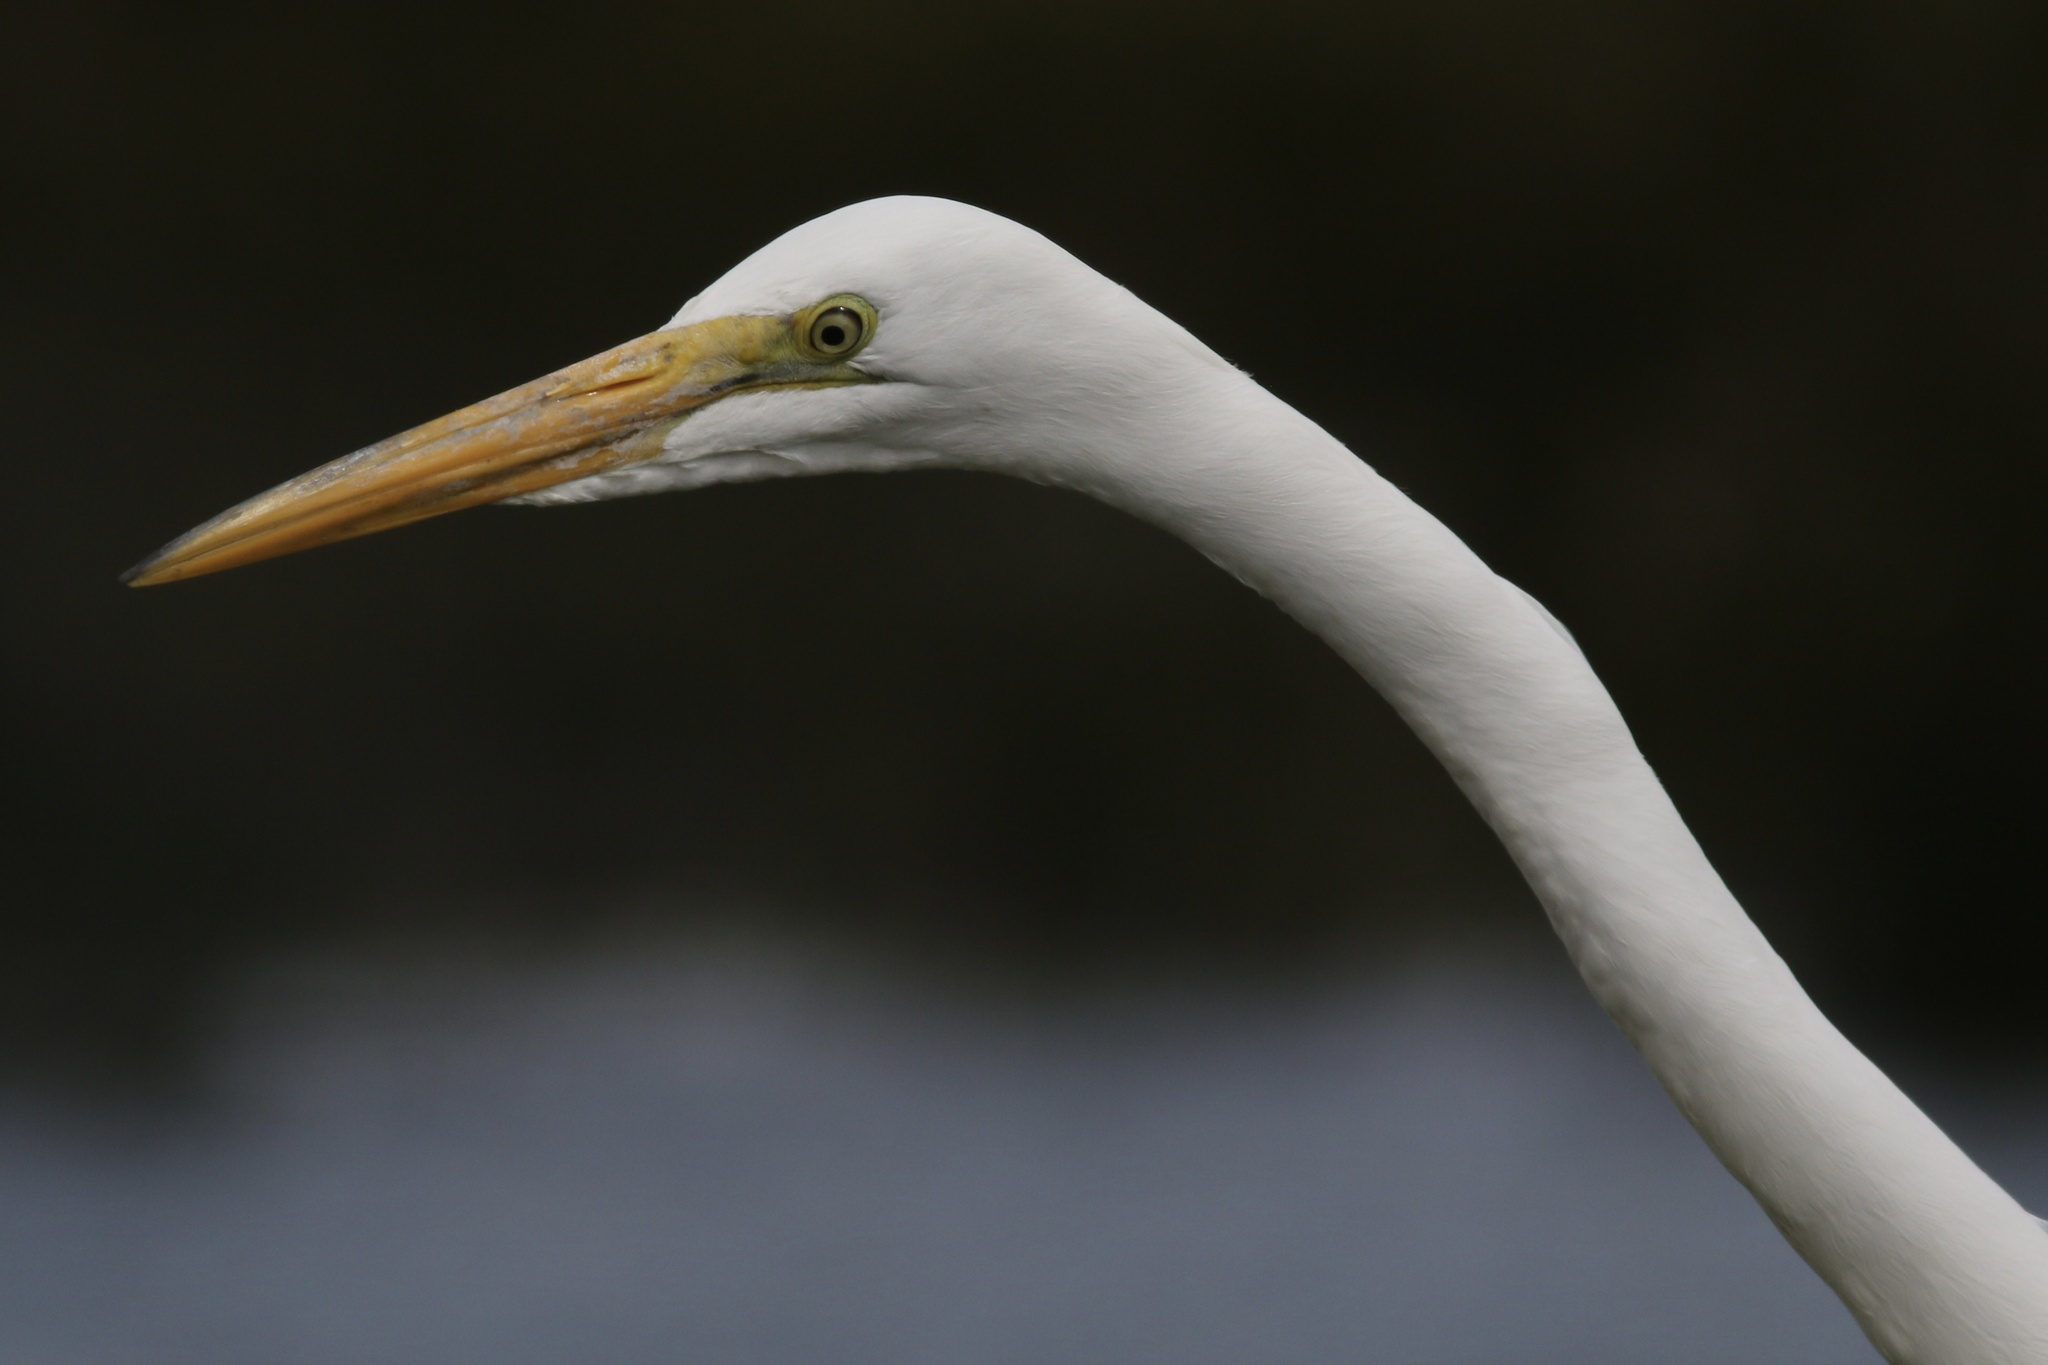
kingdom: Animalia
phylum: Chordata
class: Aves
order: Pelecaniformes
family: Ardeidae
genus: Ardea
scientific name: Ardea alba
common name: Great egret
